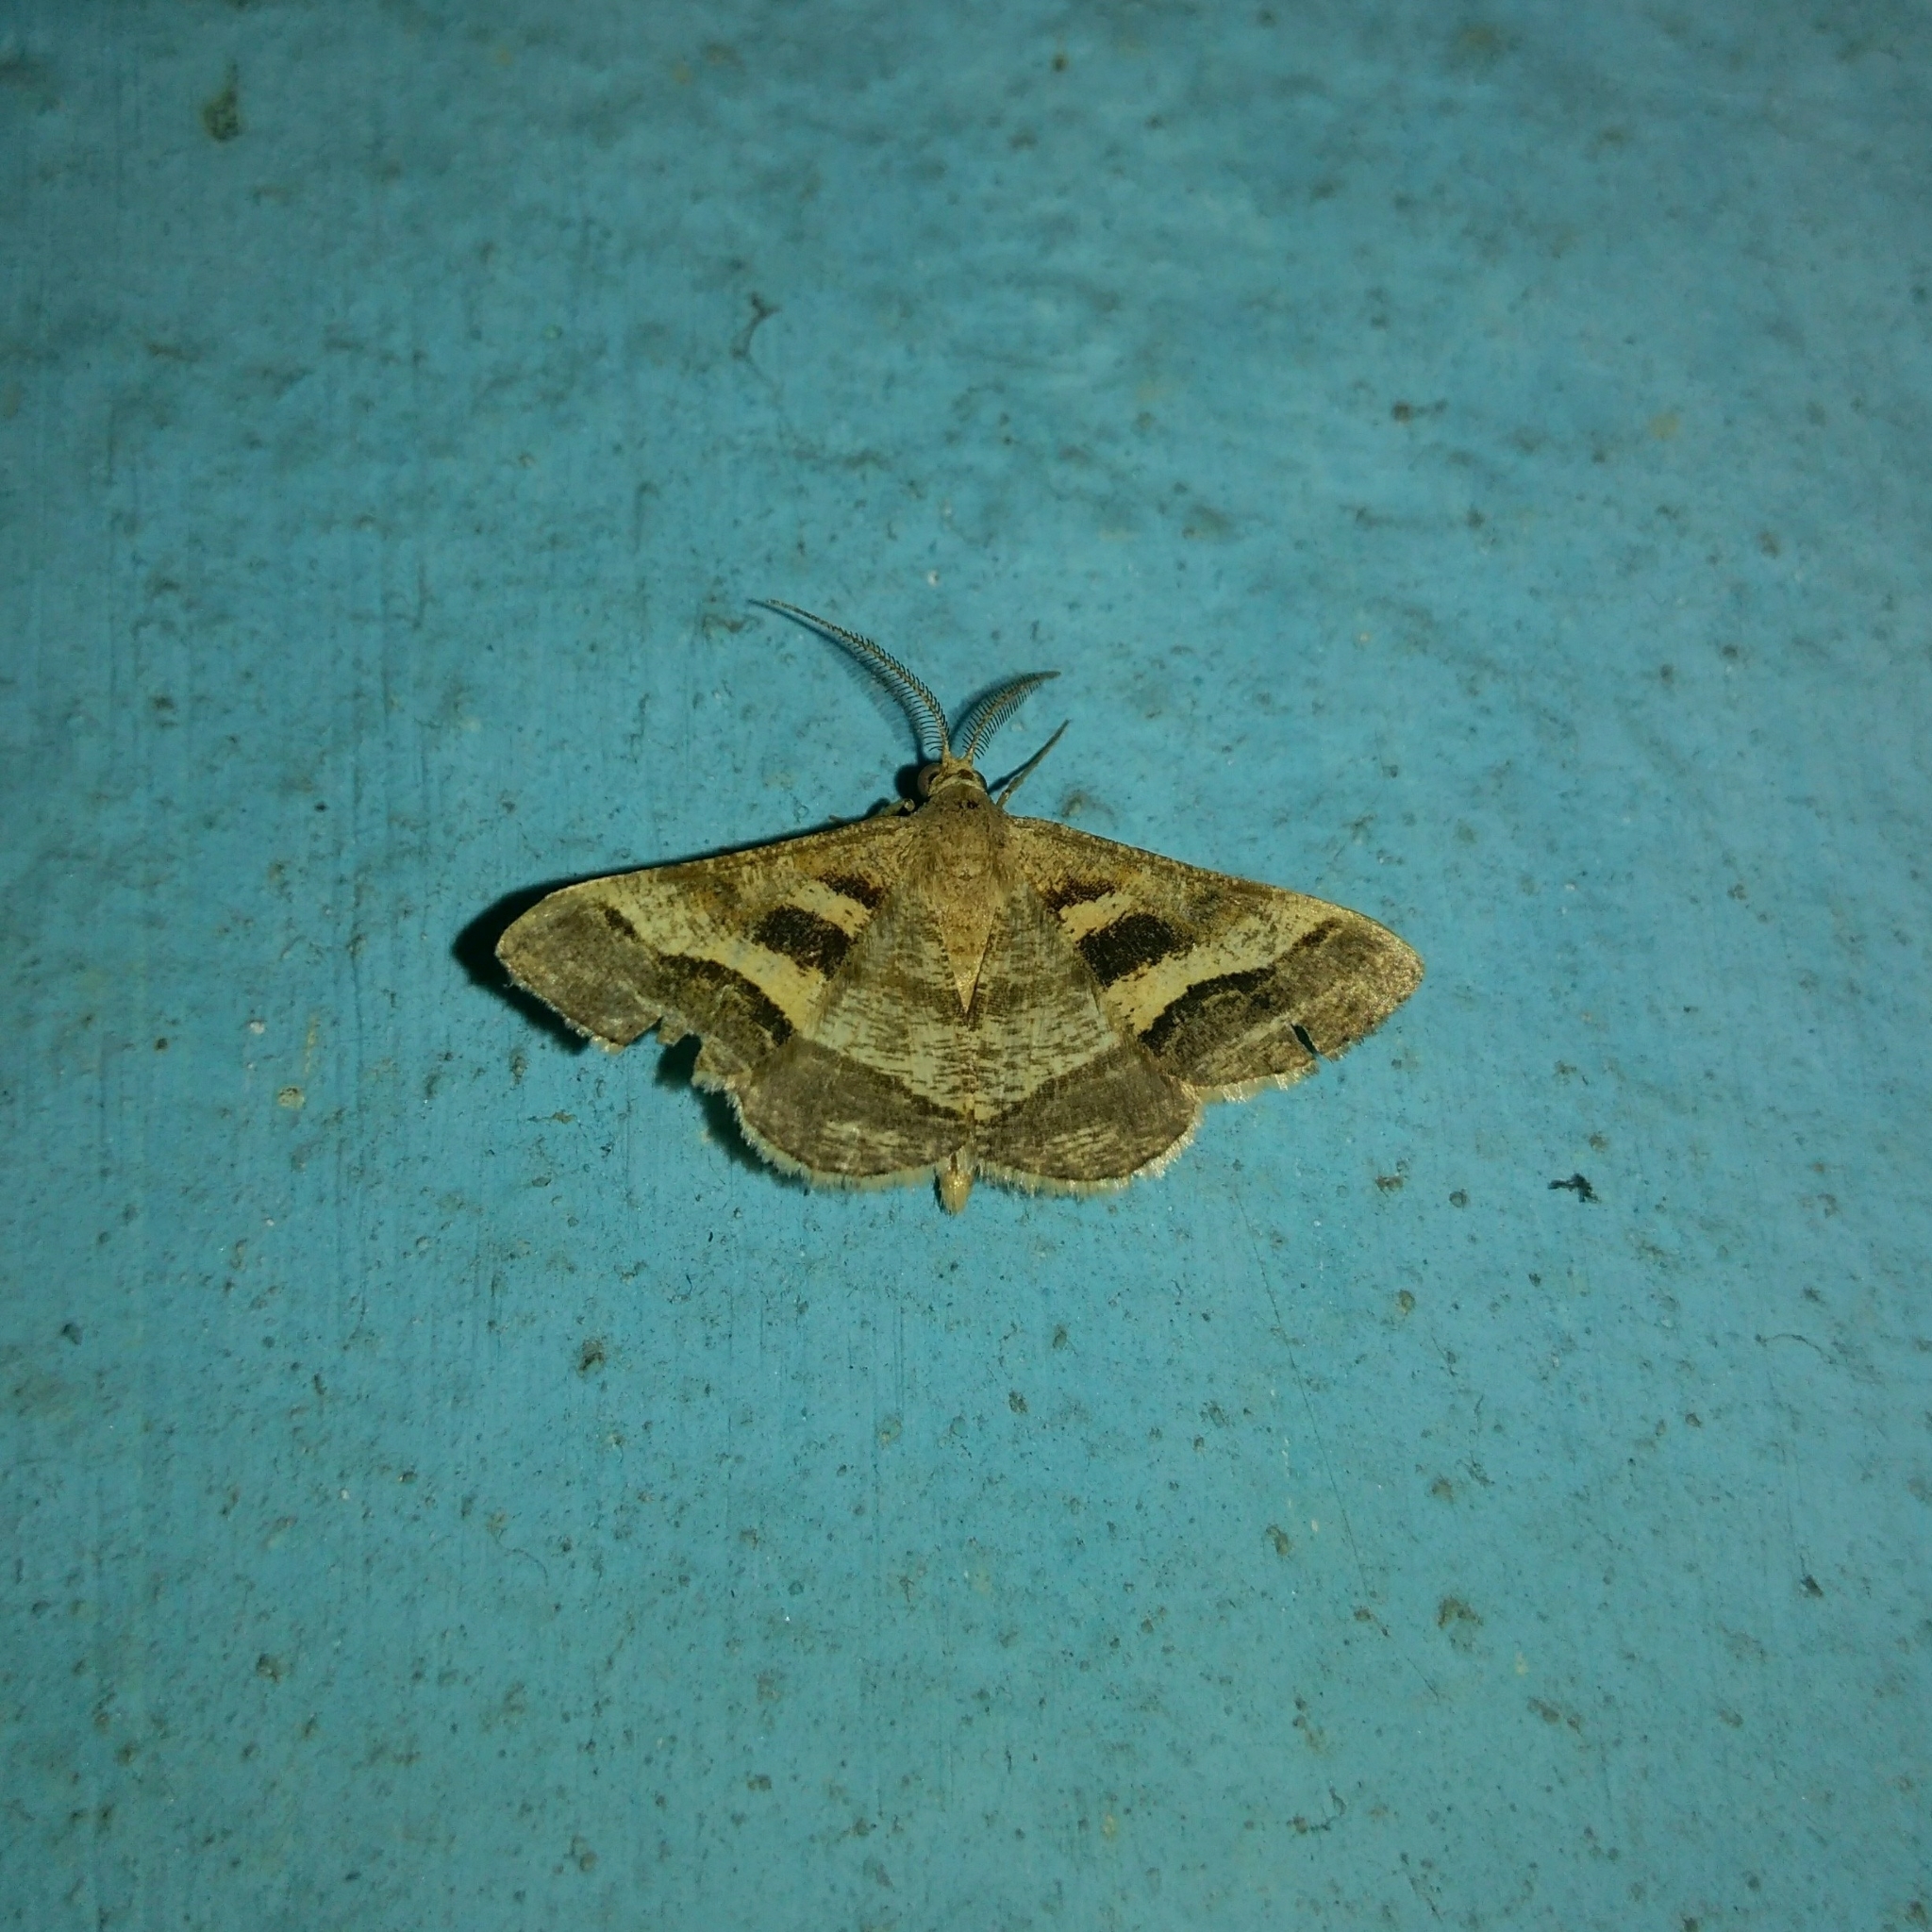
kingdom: Animalia
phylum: Arthropoda
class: Insecta
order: Lepidoptera
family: Geometridae
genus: Isturgia
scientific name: Isturgia disputaria
